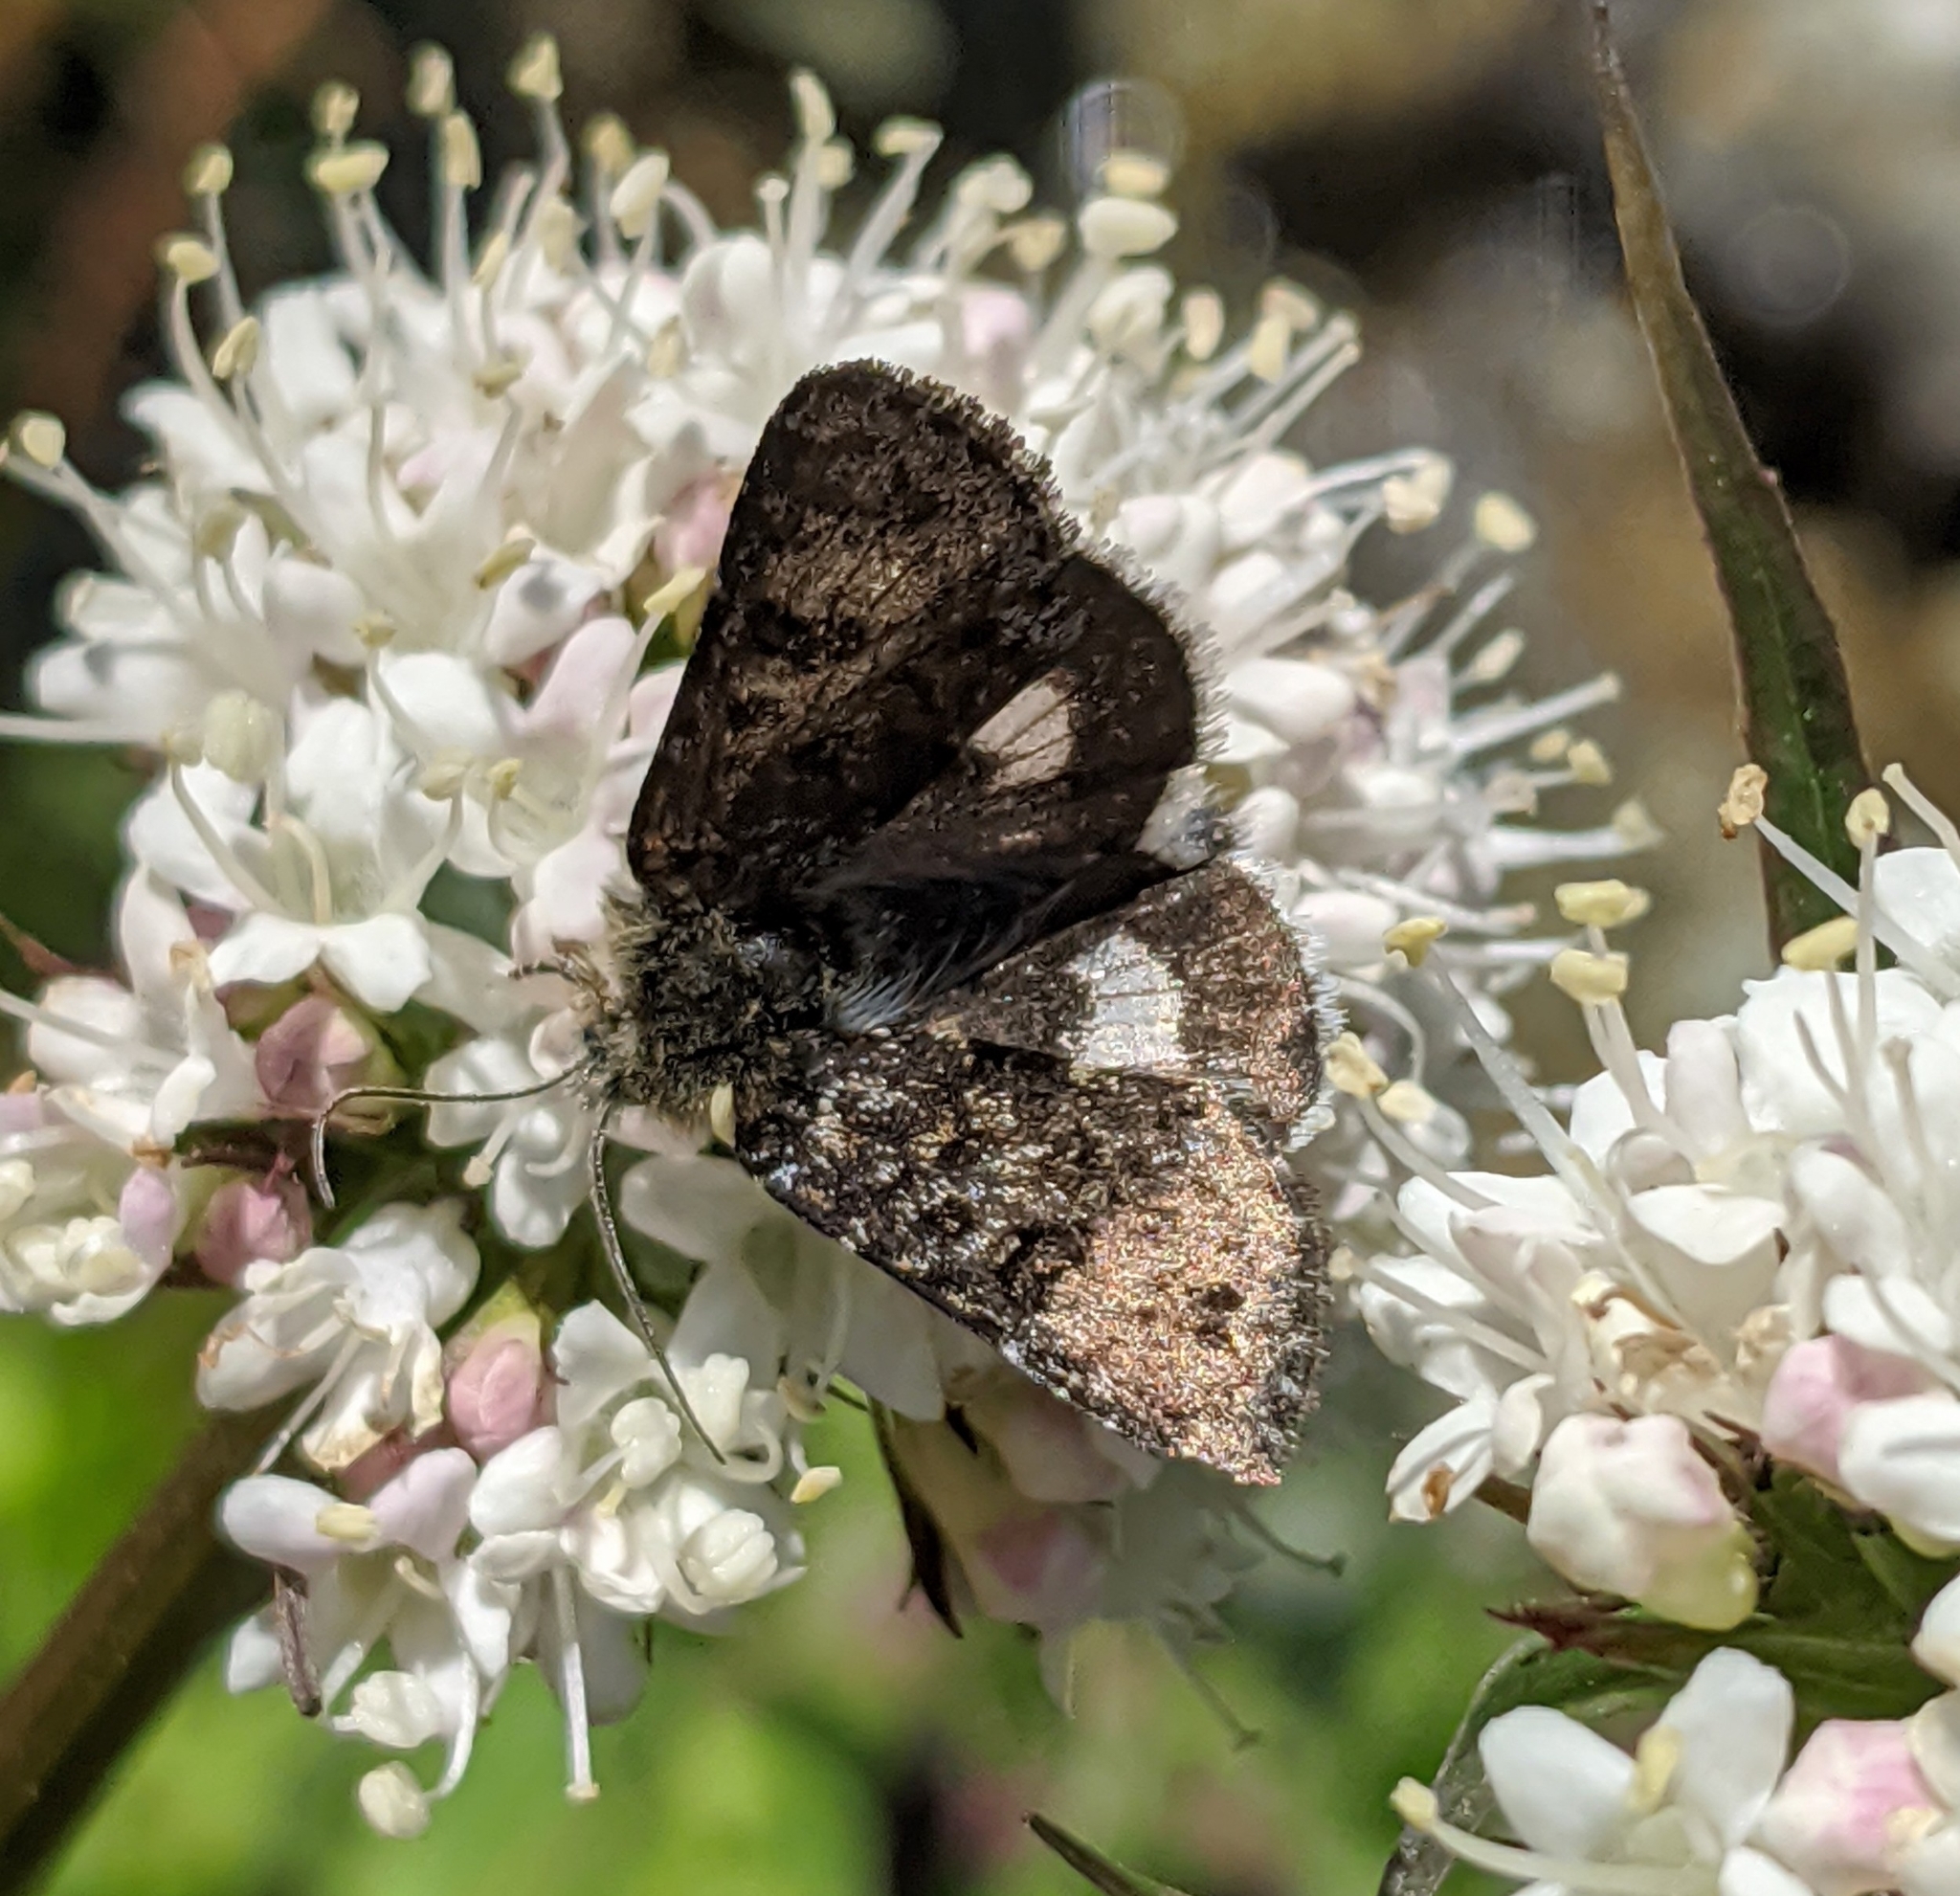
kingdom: Animalia
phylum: Arthropoda
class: Insecta
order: Lepidoptera
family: Noctuidae
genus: Anarta
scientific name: Anarta nigrolunata
